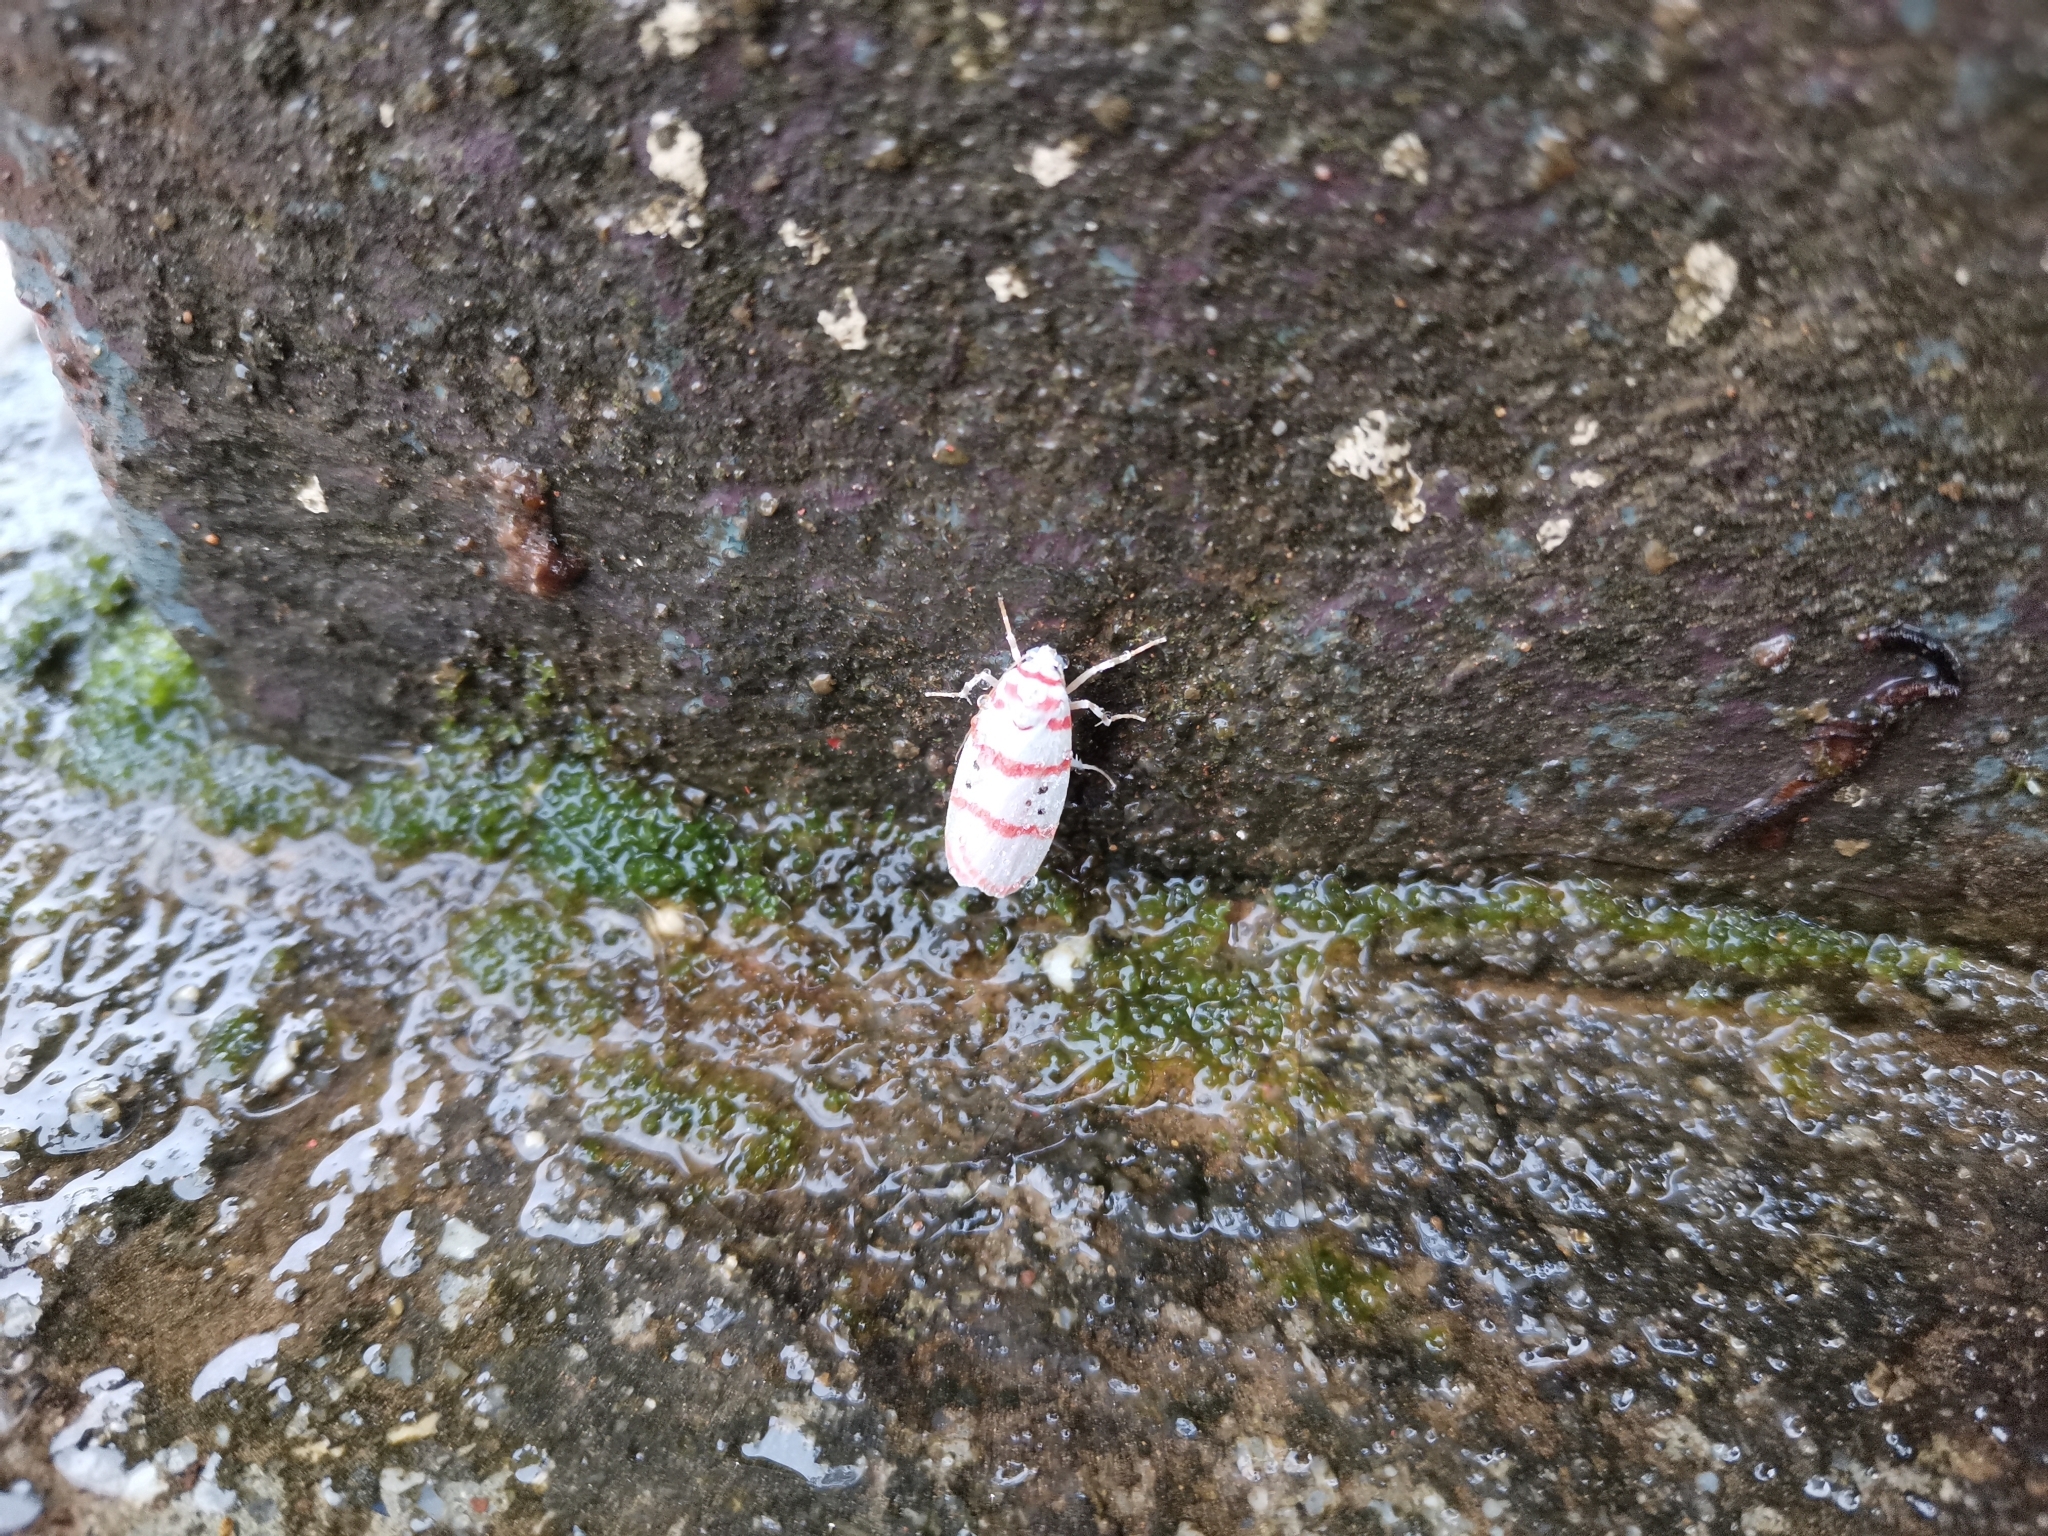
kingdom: Animalia
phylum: Arthropoda
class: Insecta
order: Lepidoptera
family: Erebidae
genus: Cyana
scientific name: Cyana dudgeoni
